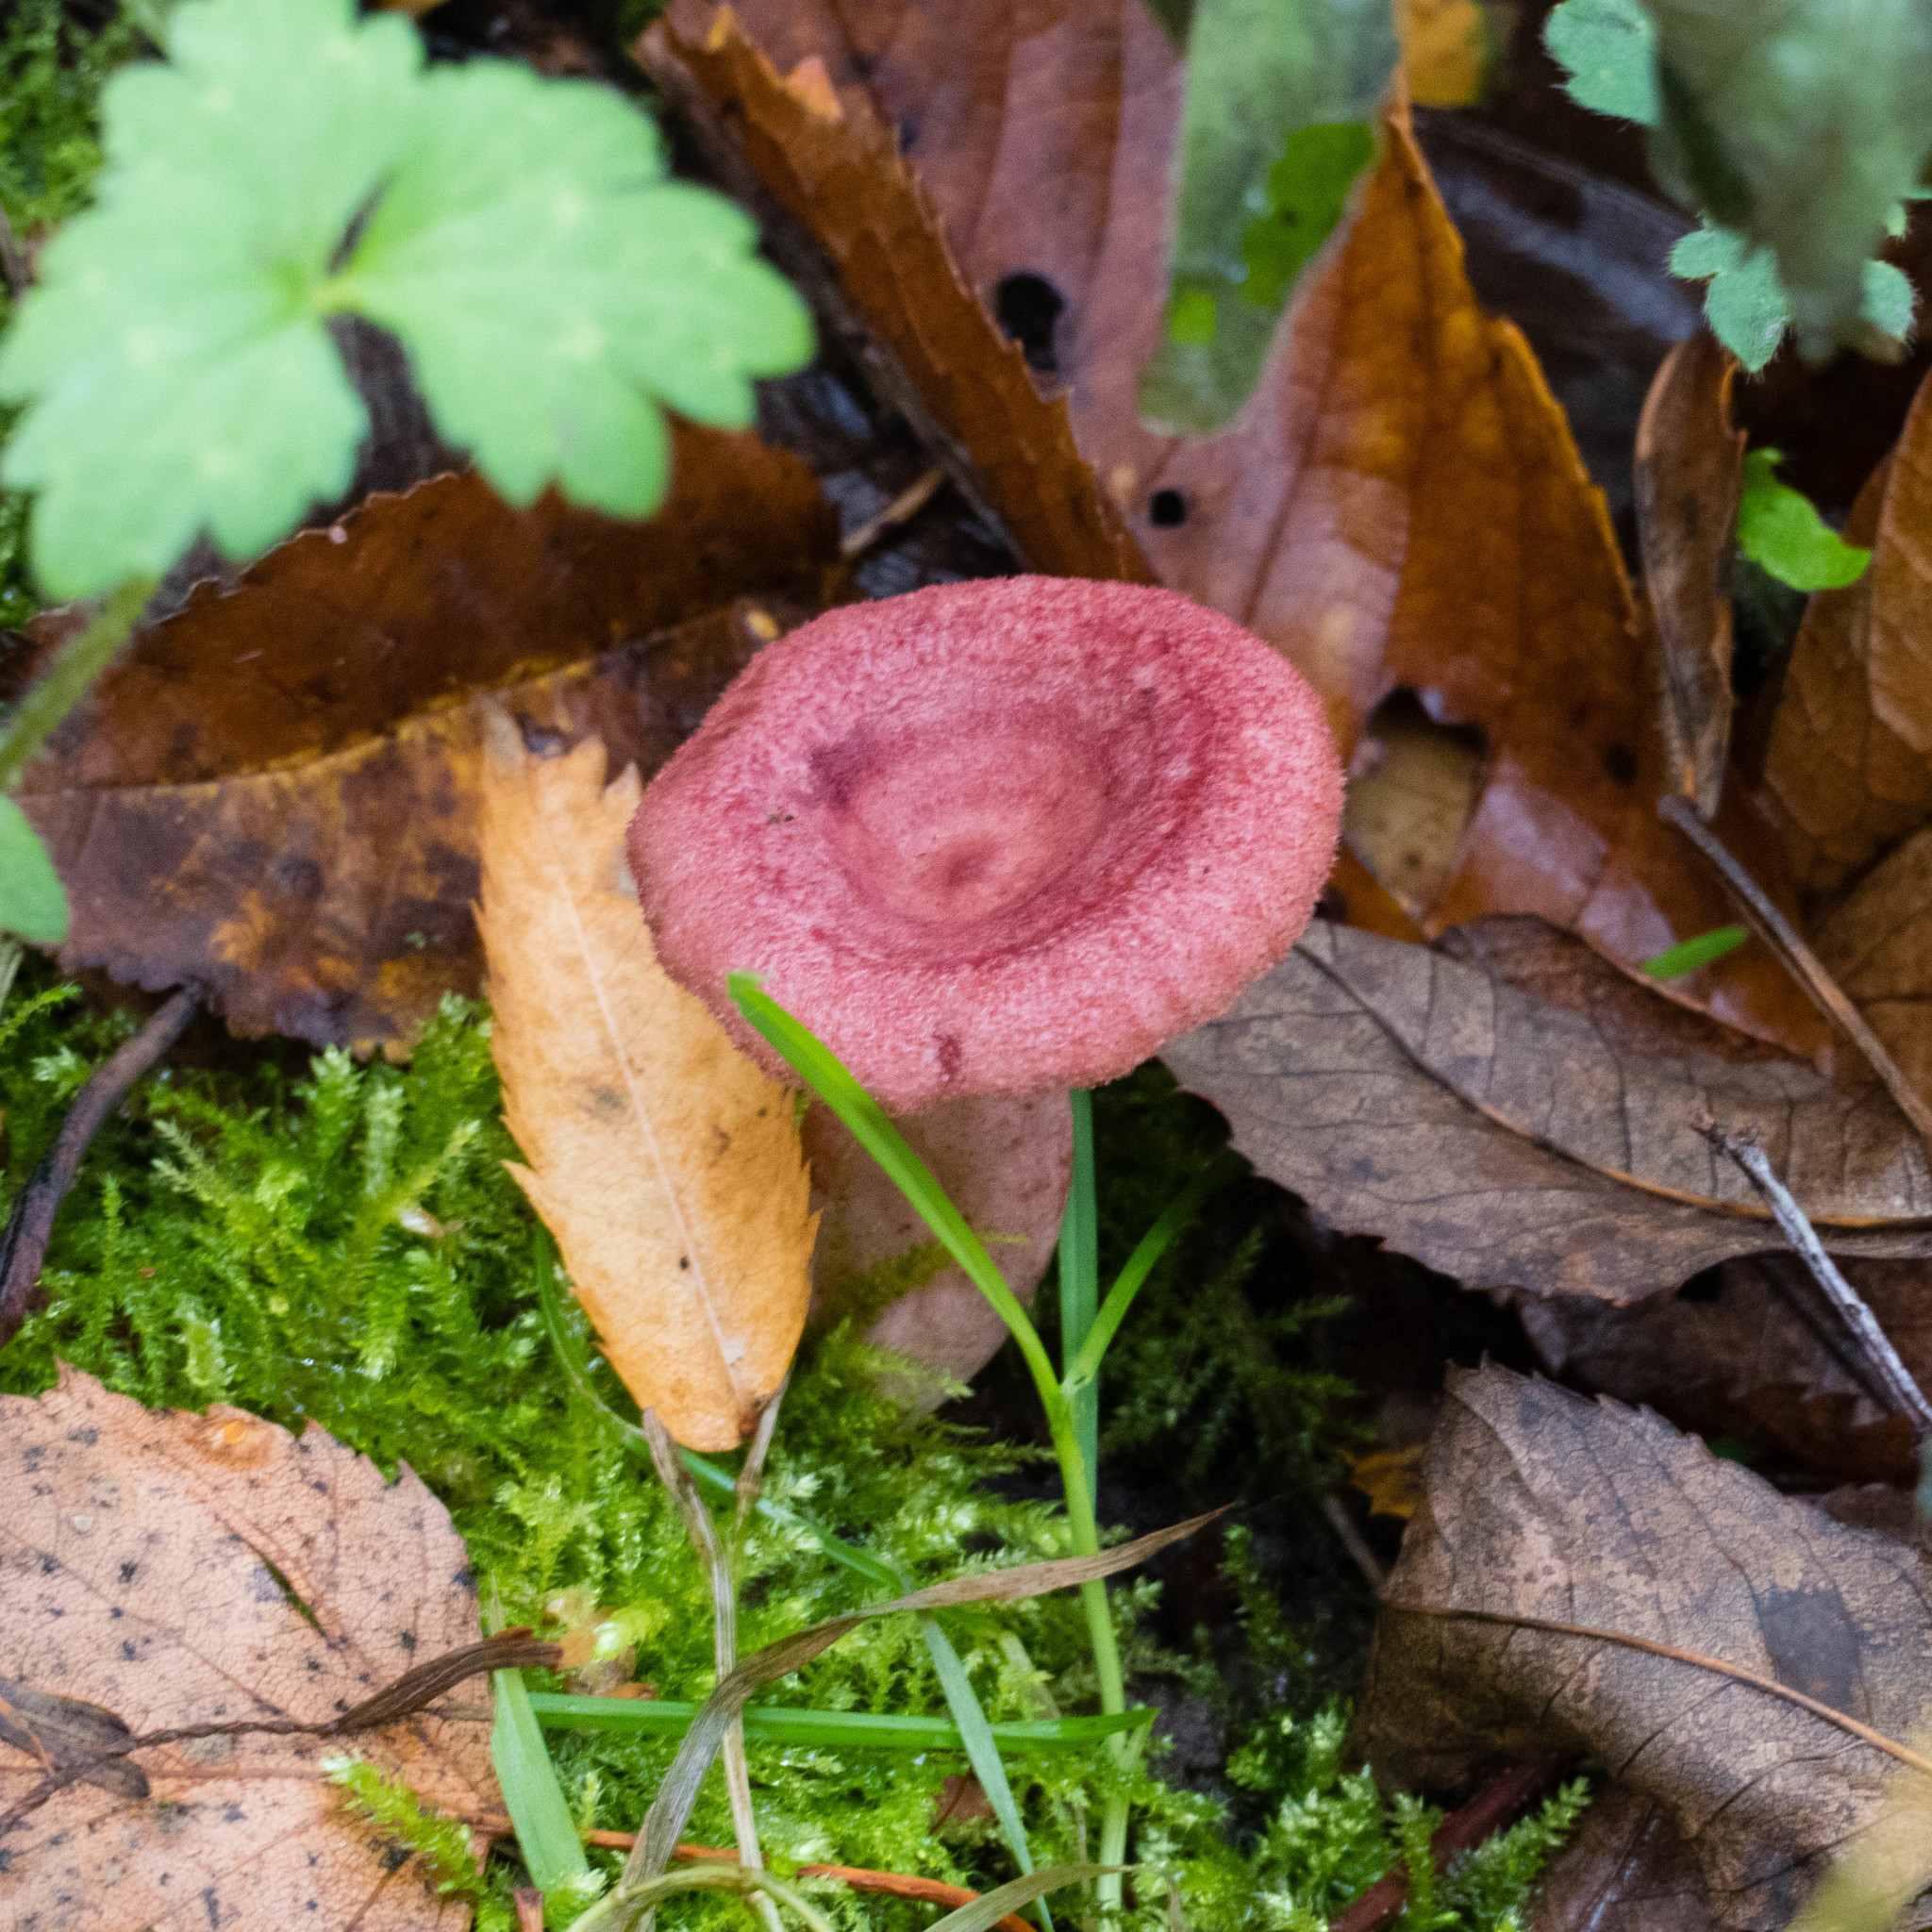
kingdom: Fungi
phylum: Basidiomycota
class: Agaricomycetes
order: Russulales
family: Russulaceae
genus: Lactarius
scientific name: Lactarius spinosulus
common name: Lilacscale milkcap
